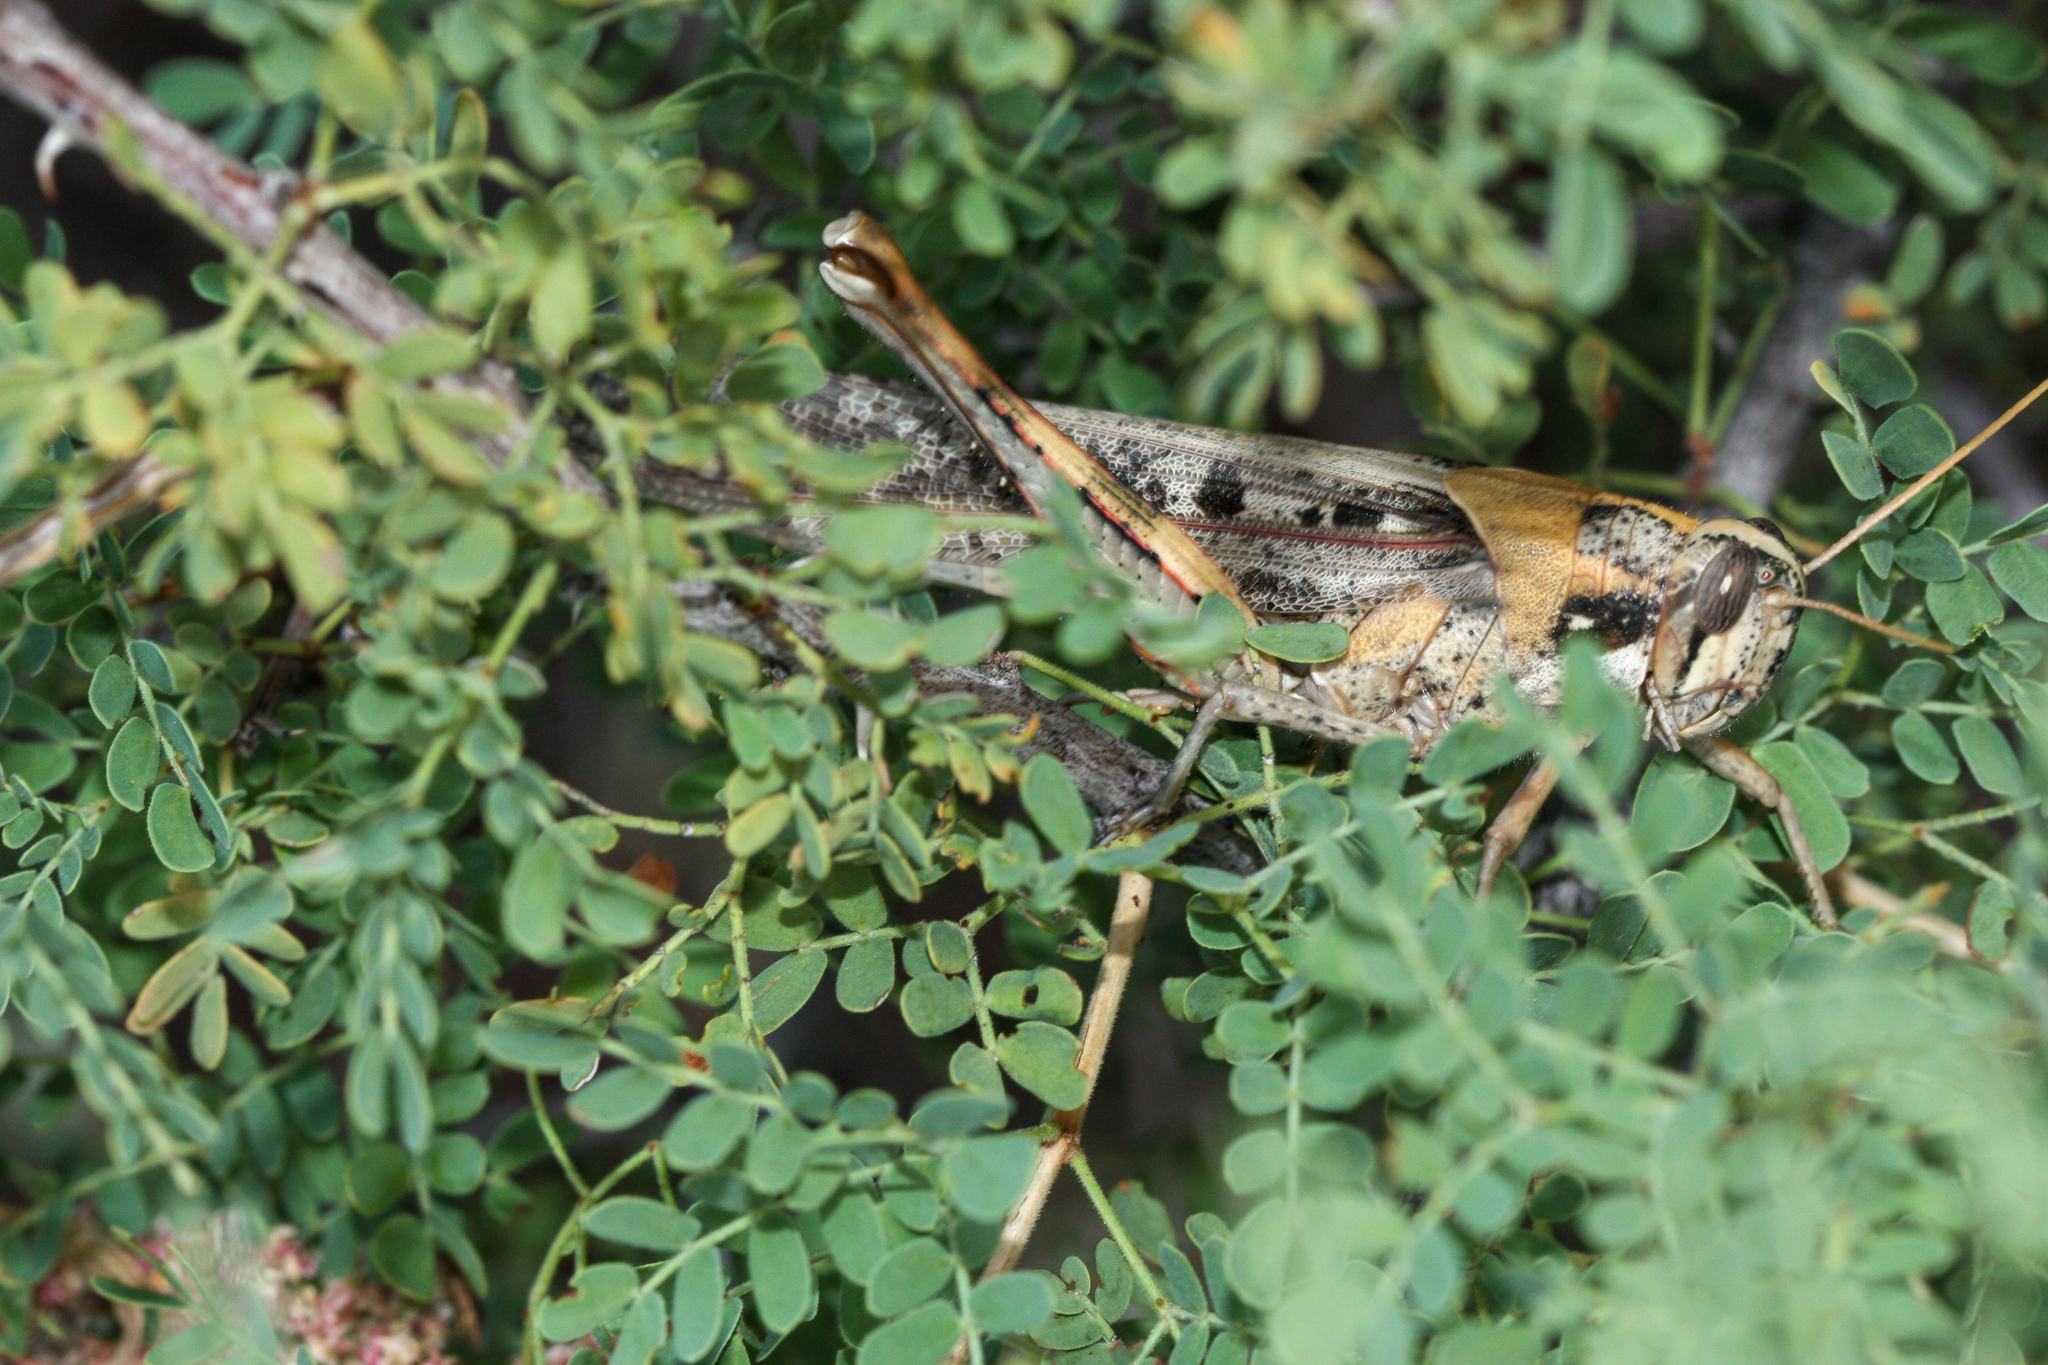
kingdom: Animalia
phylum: Arthropoda
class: Insecta
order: Orthoptera
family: Acrididae
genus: Schistocerca
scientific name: Schistocerca nitens
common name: Vagrant grasshopper
